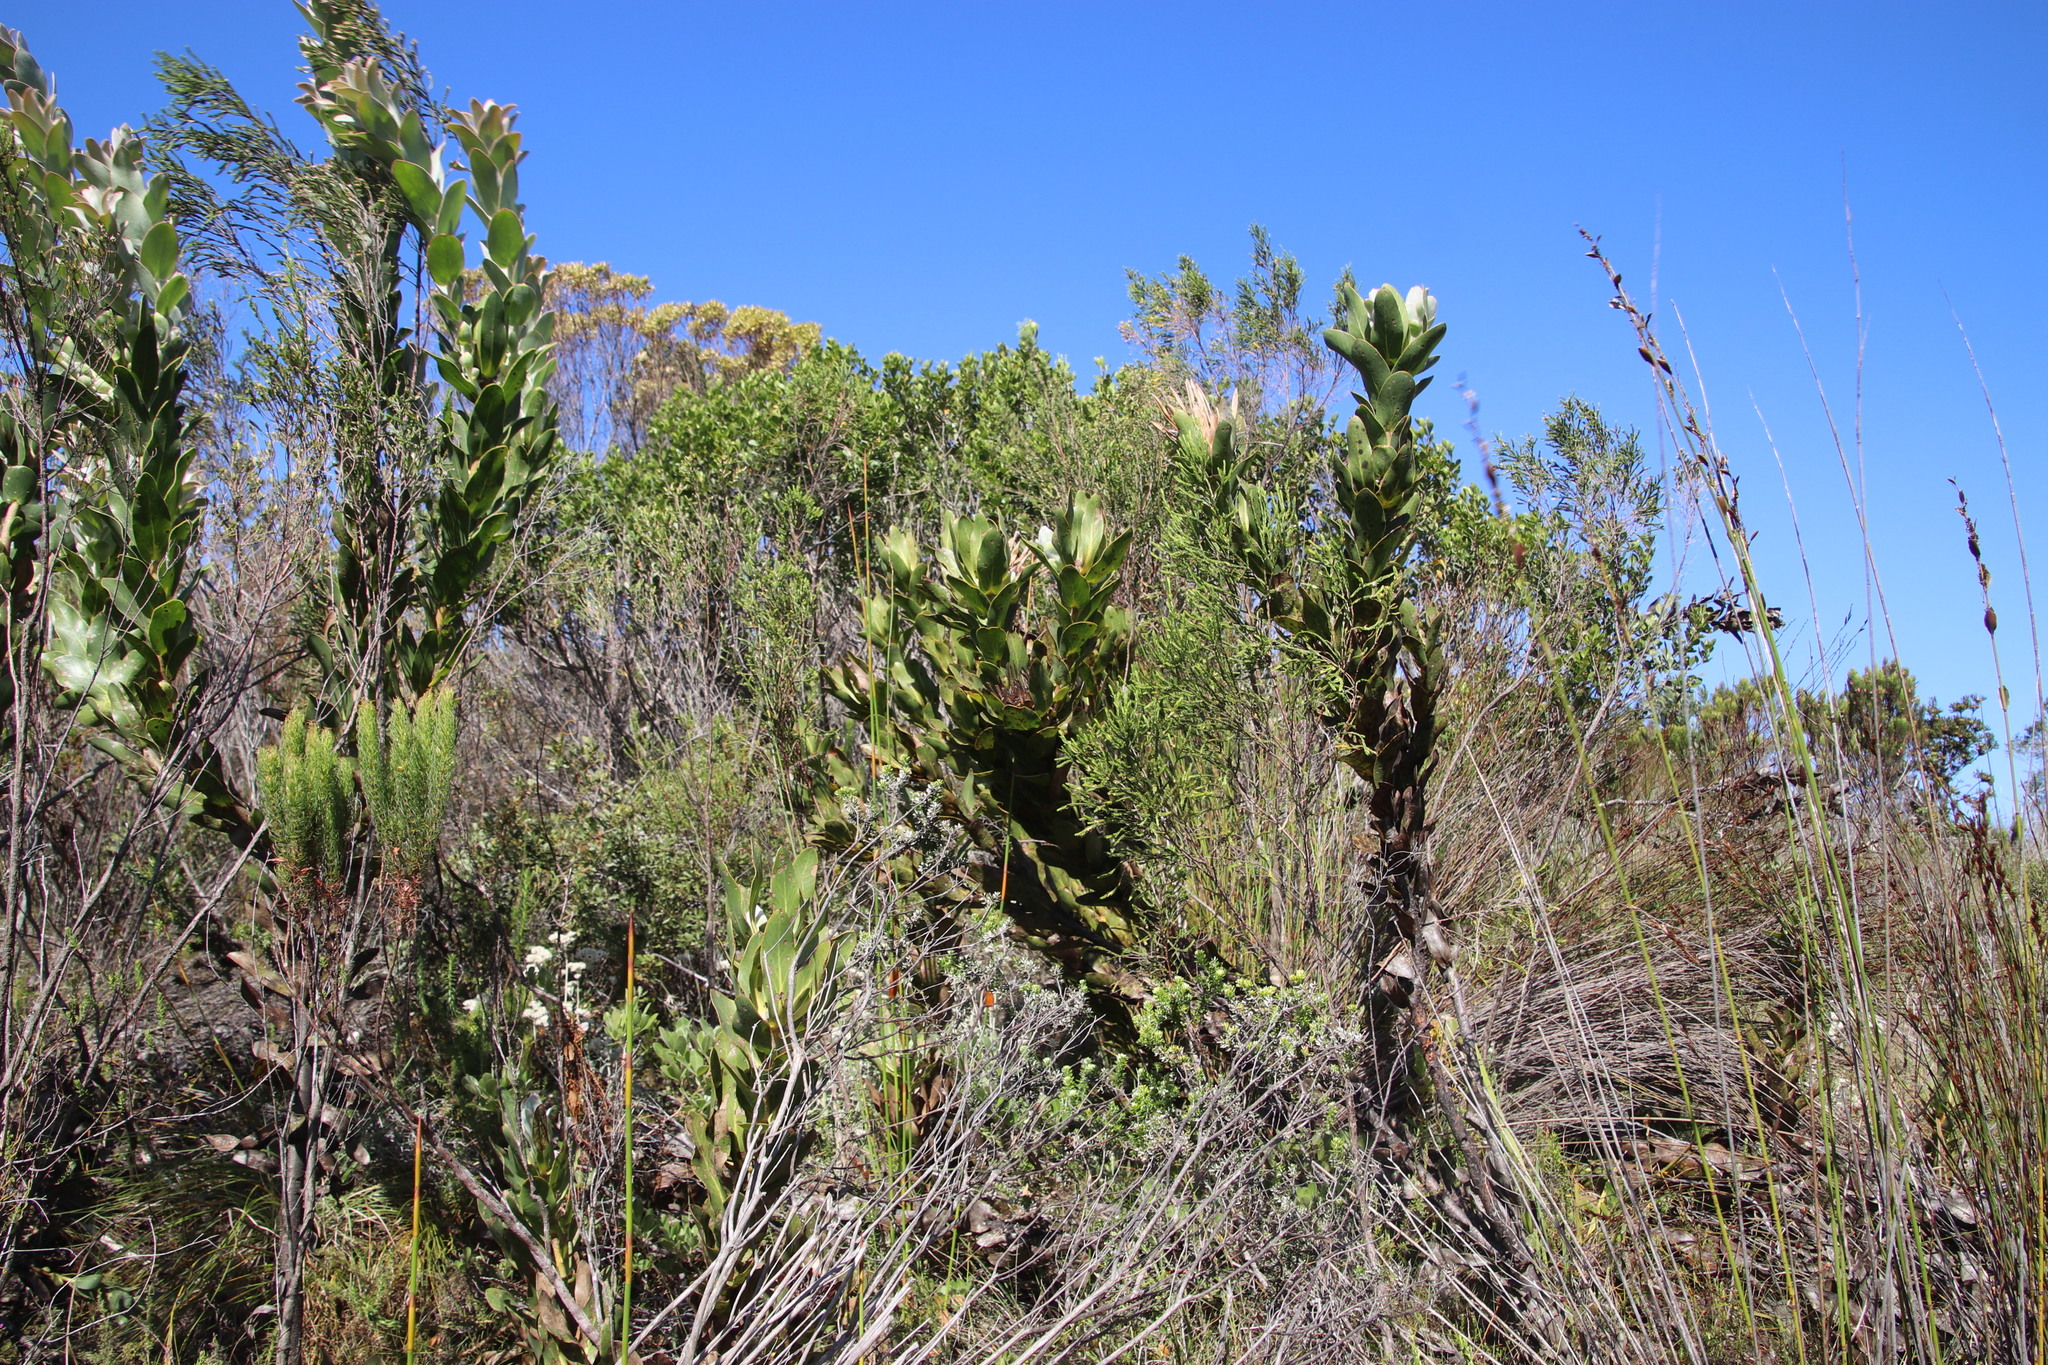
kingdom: Plantae
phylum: Tracheophyta
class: Magnoliopsida
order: Proteales
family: Proteaceae
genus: Protea
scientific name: Protea compacta
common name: Bot river protea
